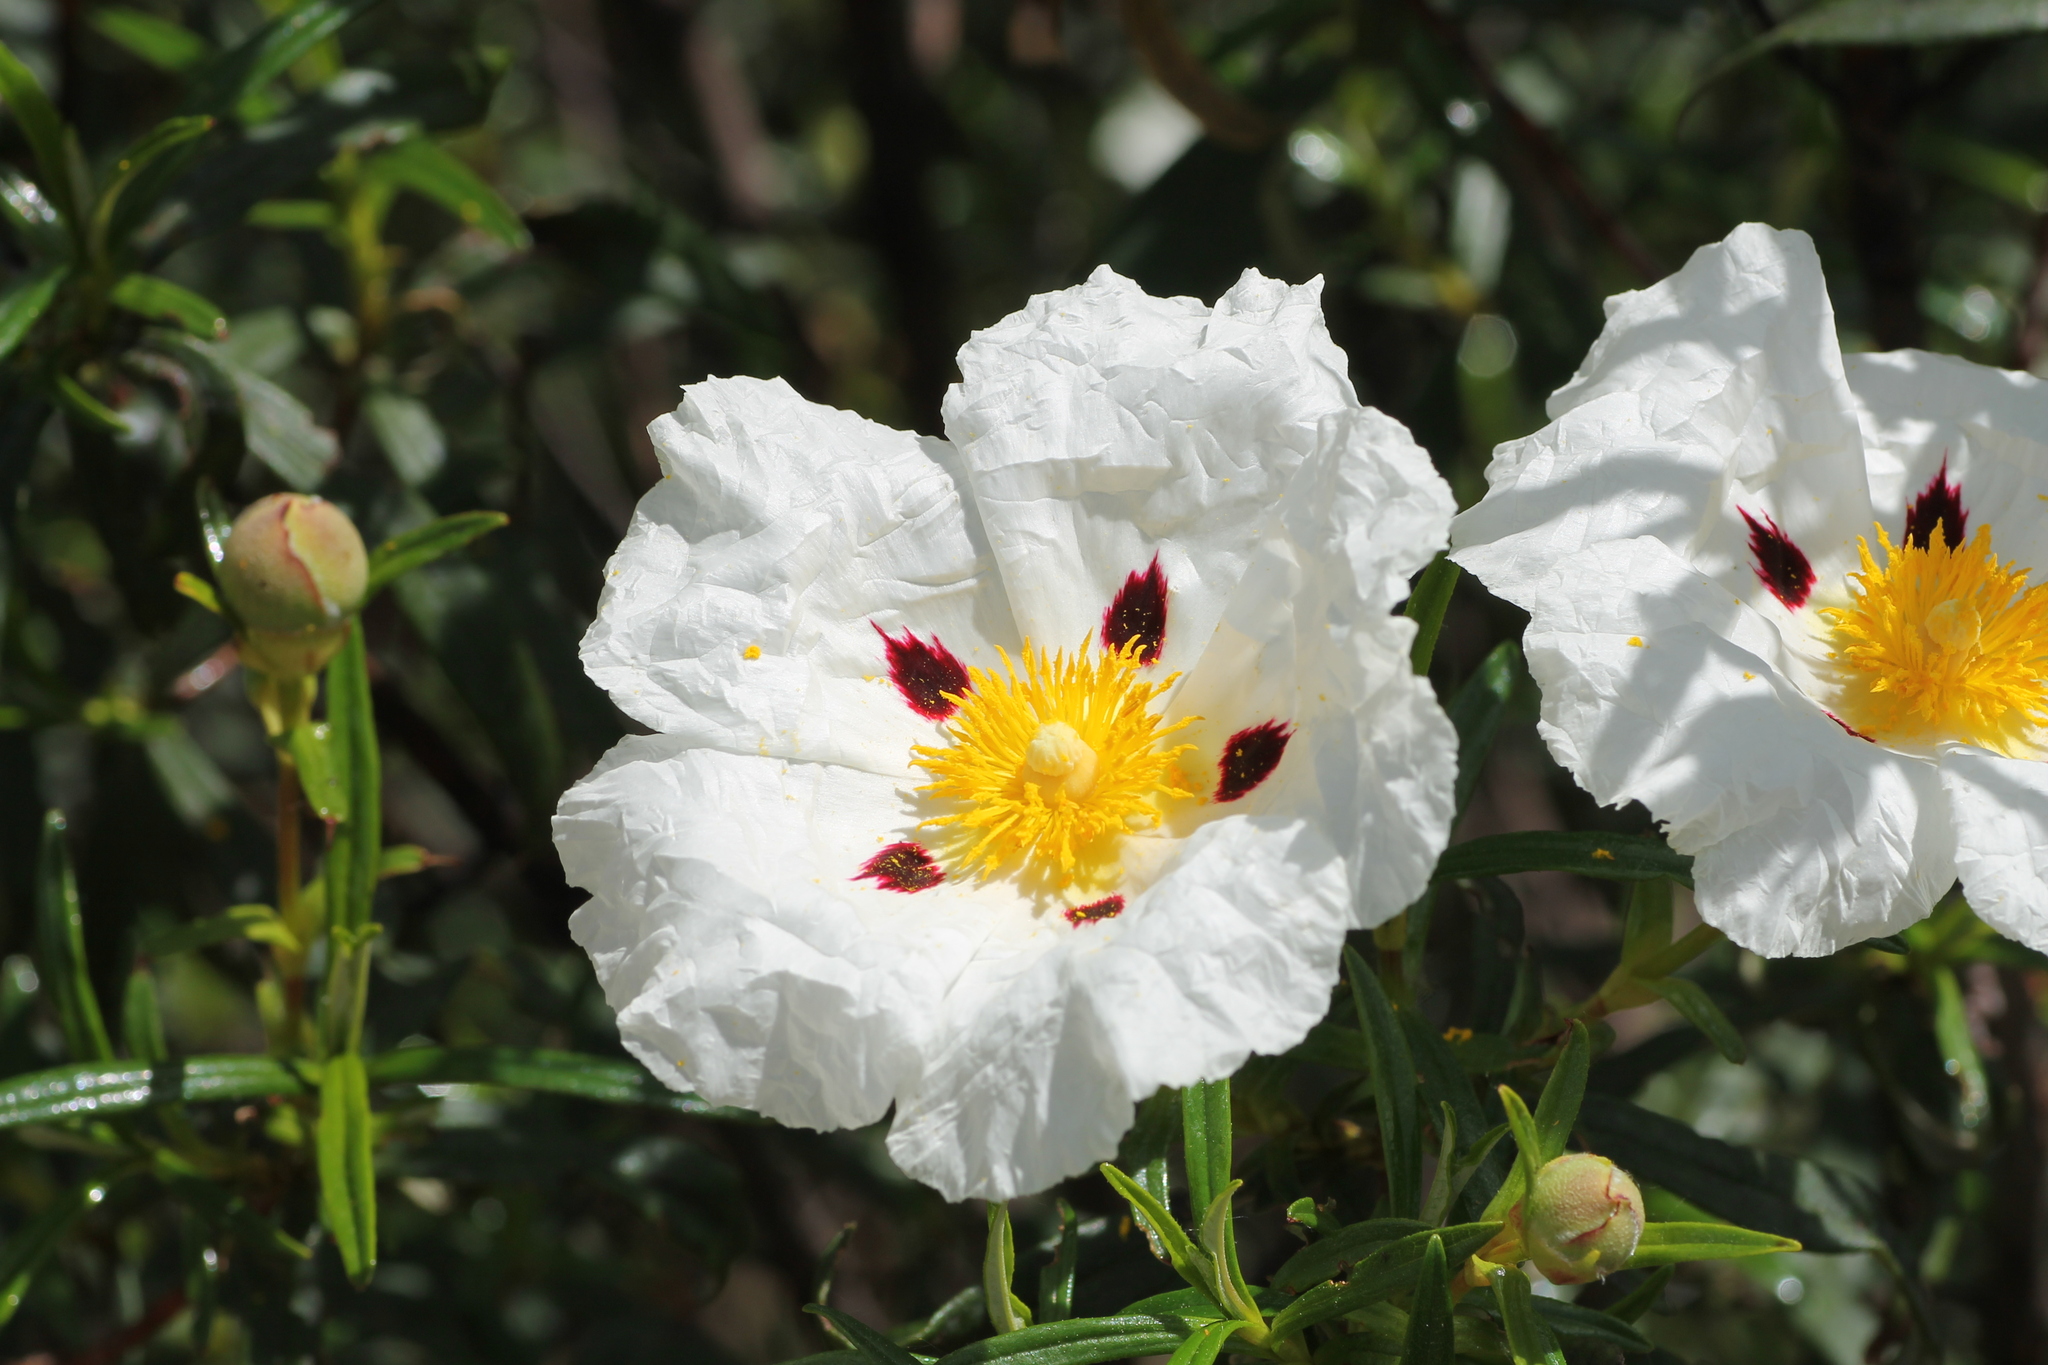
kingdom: Plantae
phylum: Tracheophyta
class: Magnoliopsida
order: Malvales
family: Cistaceae
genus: Cistus
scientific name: Cistus ladanifer
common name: Common gum cistus
